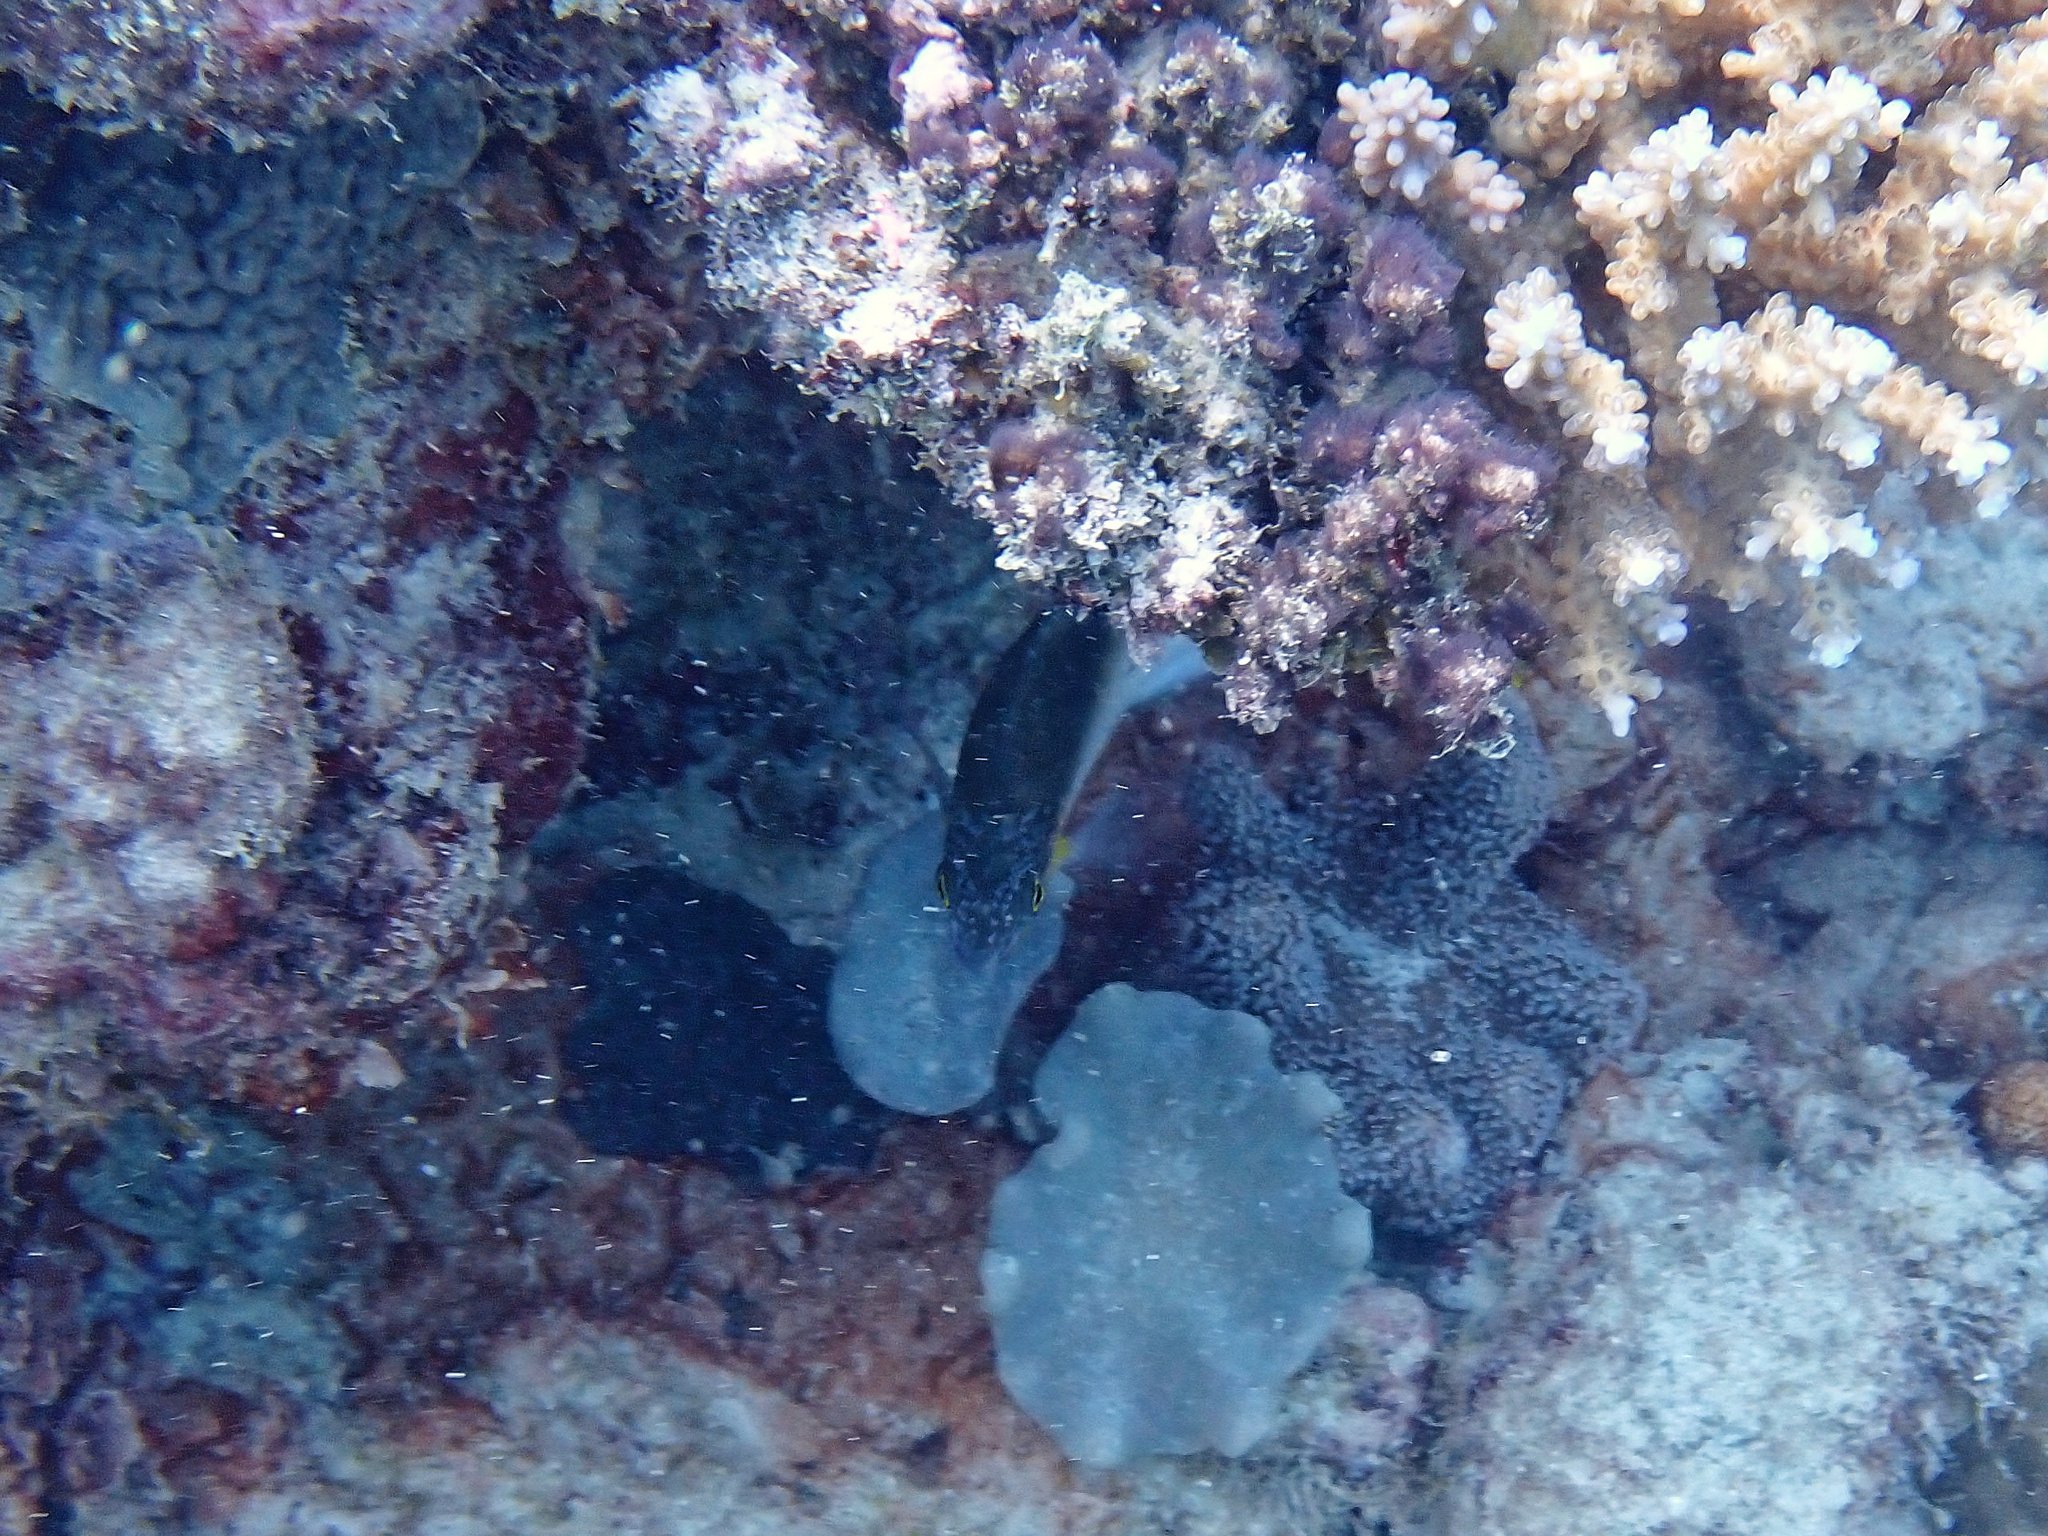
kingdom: Animalia
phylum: Chordata
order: Perciformes
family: Pomacentridae
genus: Dischistodus
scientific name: Dischistodus melanotus
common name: Black-vent damsel
